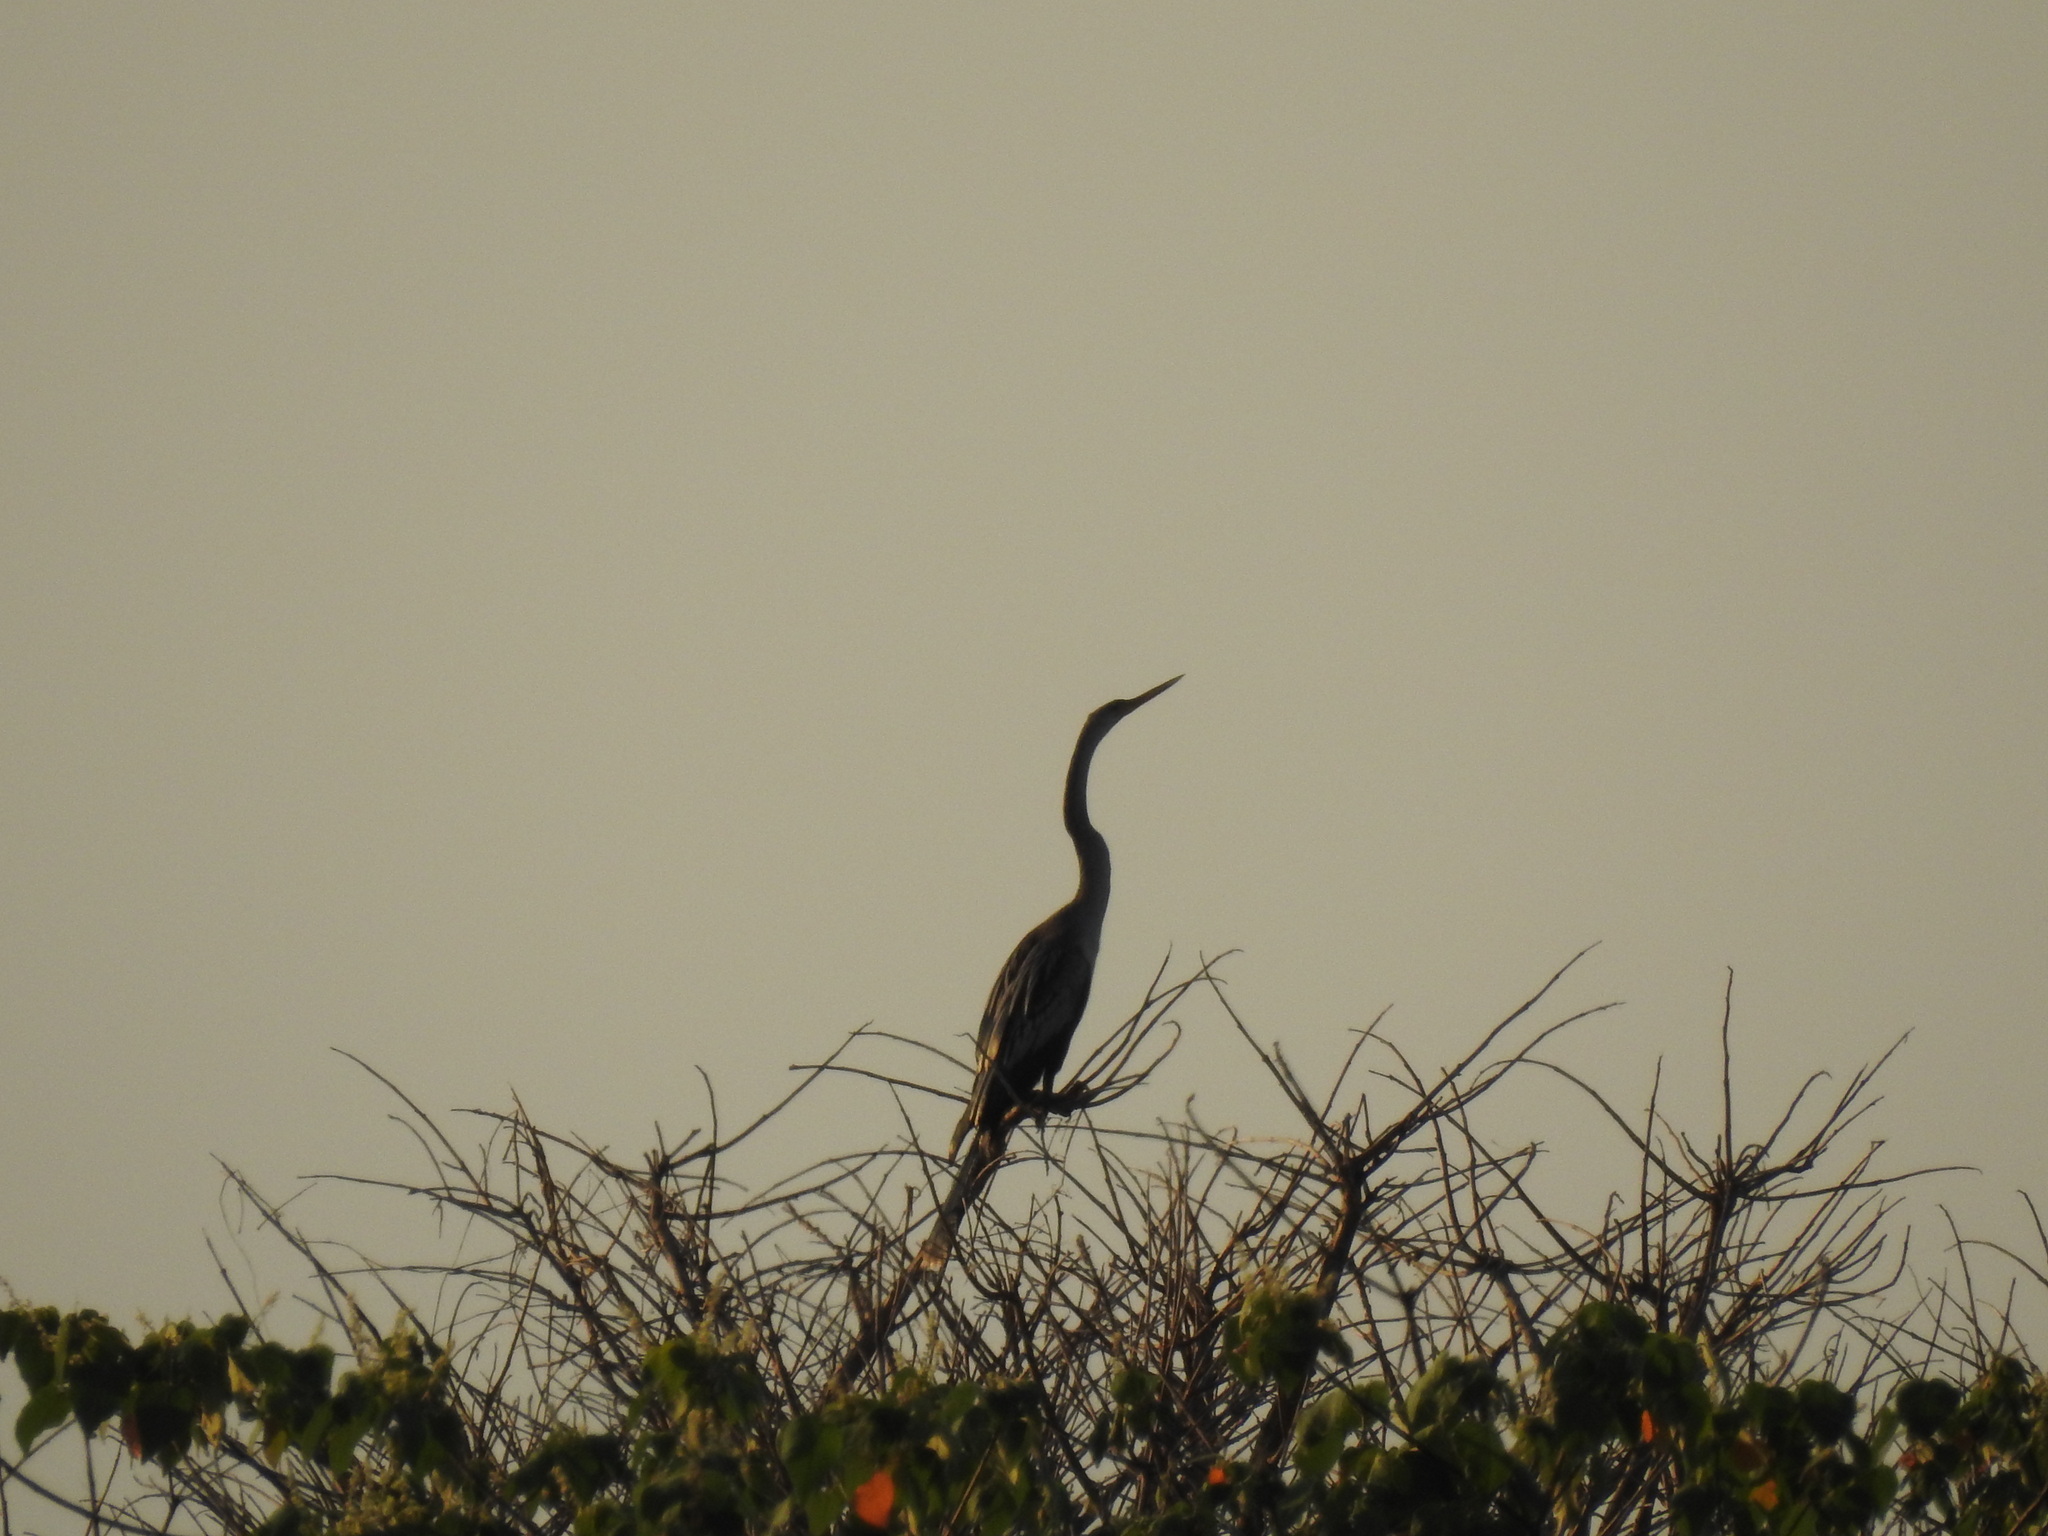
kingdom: Animalia
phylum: Chordata
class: Aves
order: Suliformes
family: Anhingidae
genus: Anhinga
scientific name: Anhinga anhinga
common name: Anhinga
